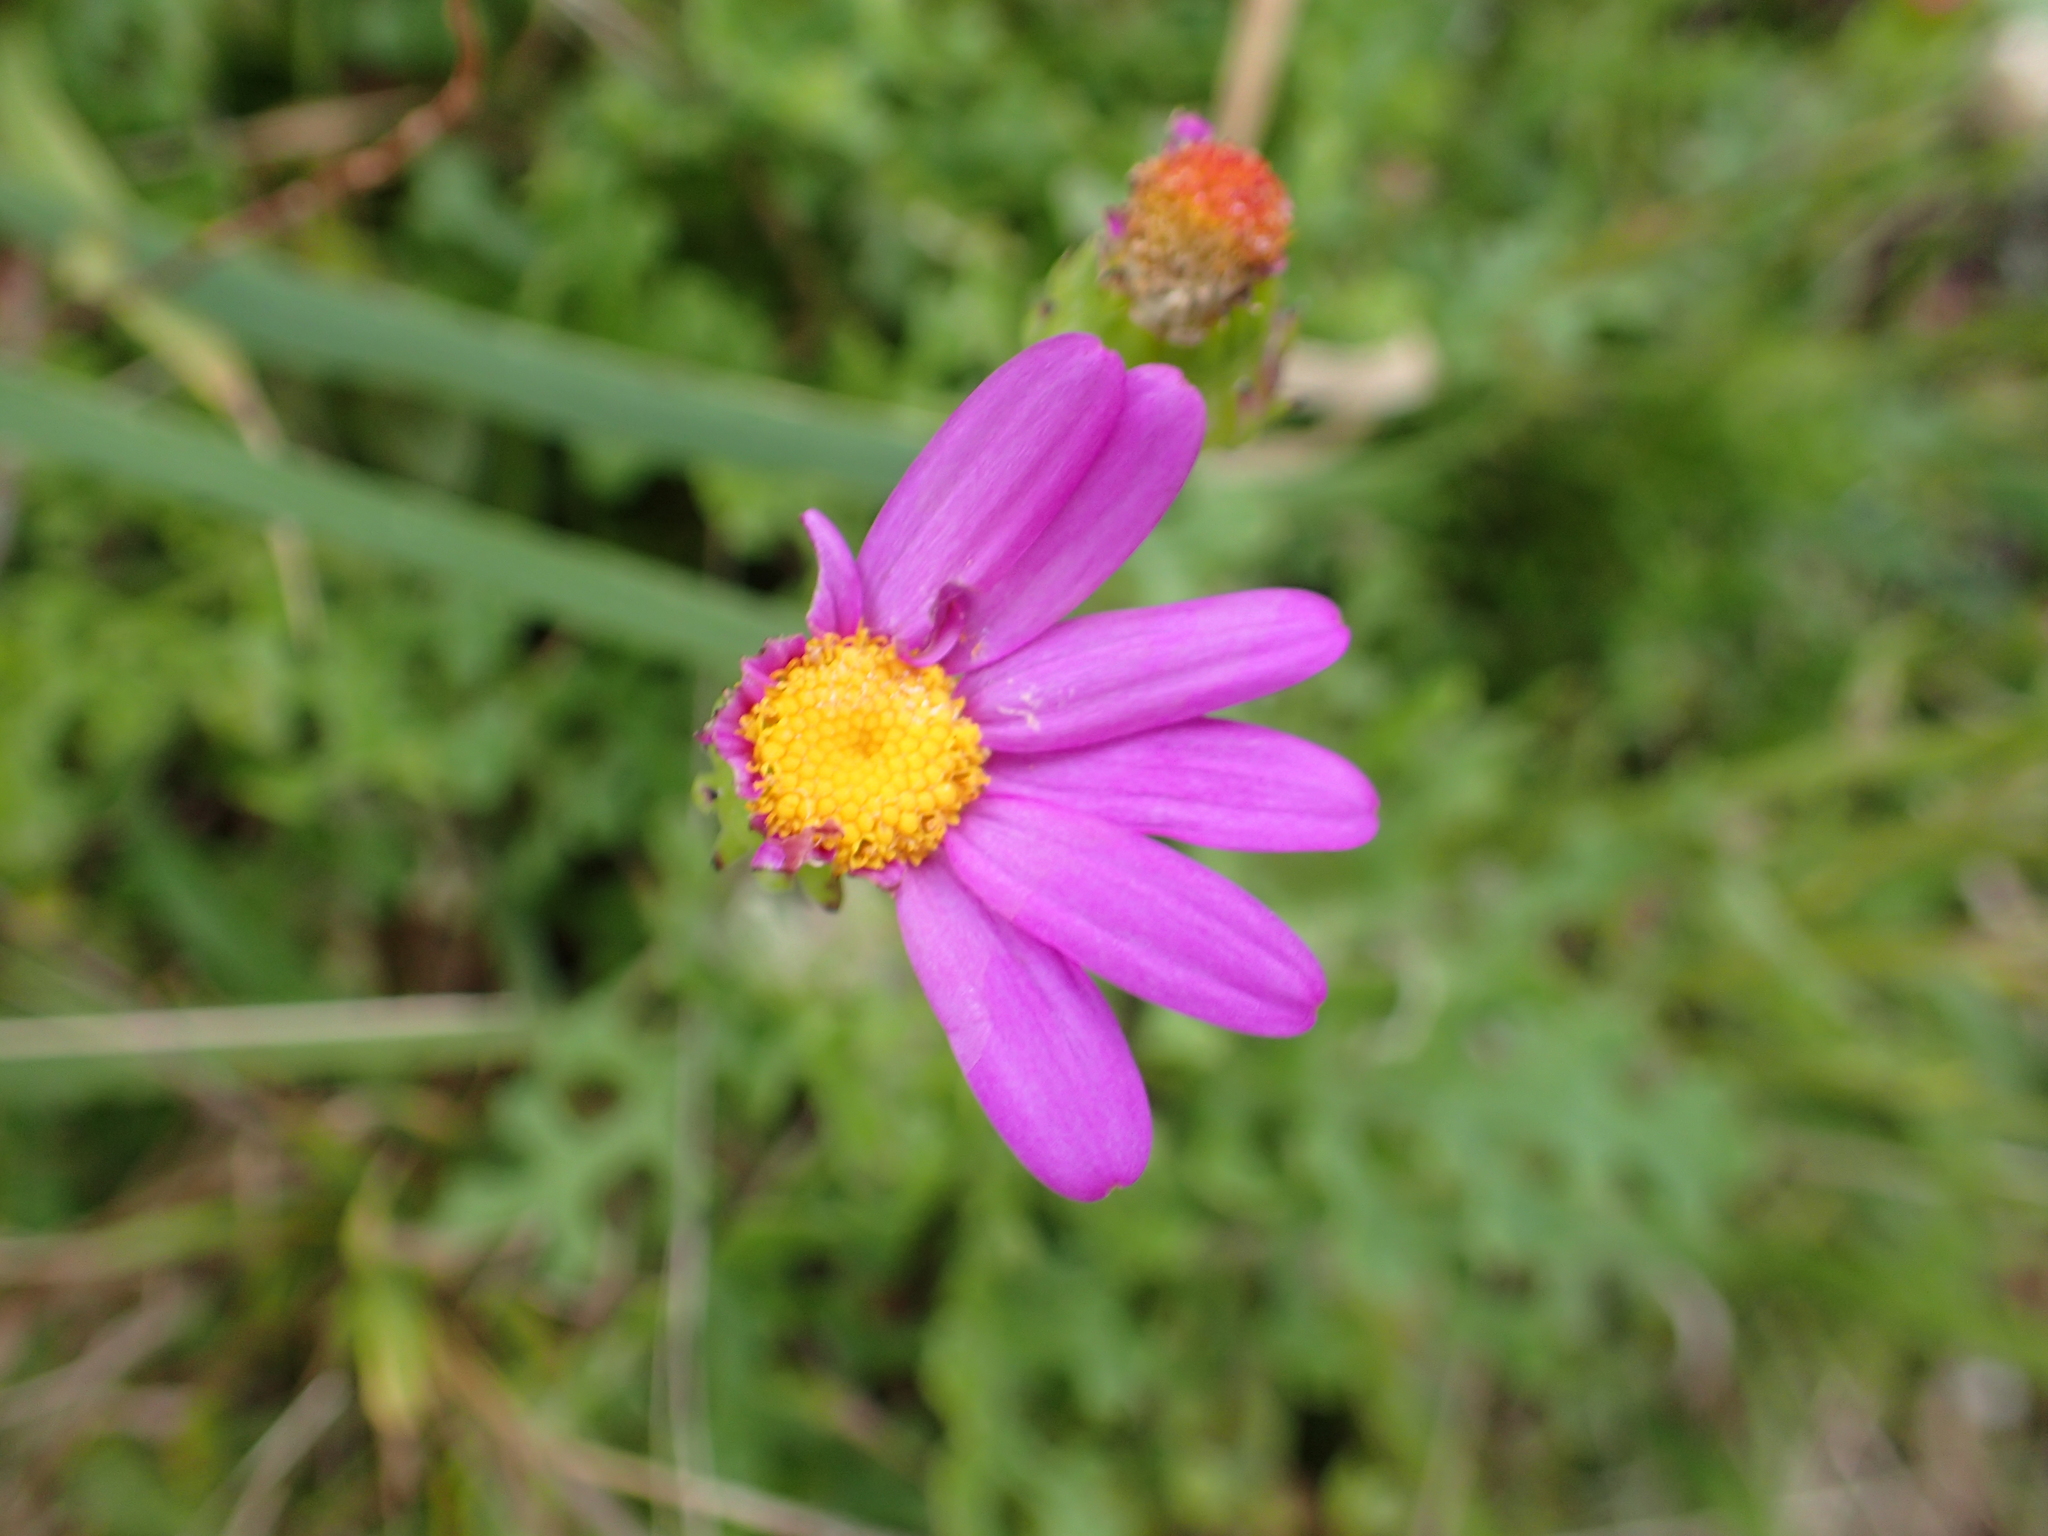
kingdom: Plantae
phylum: Tracheophyta
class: Magnoliopsida
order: Asterales
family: Asteraceae
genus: Senecio
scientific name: Senecio elegans
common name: Purple groundsel
